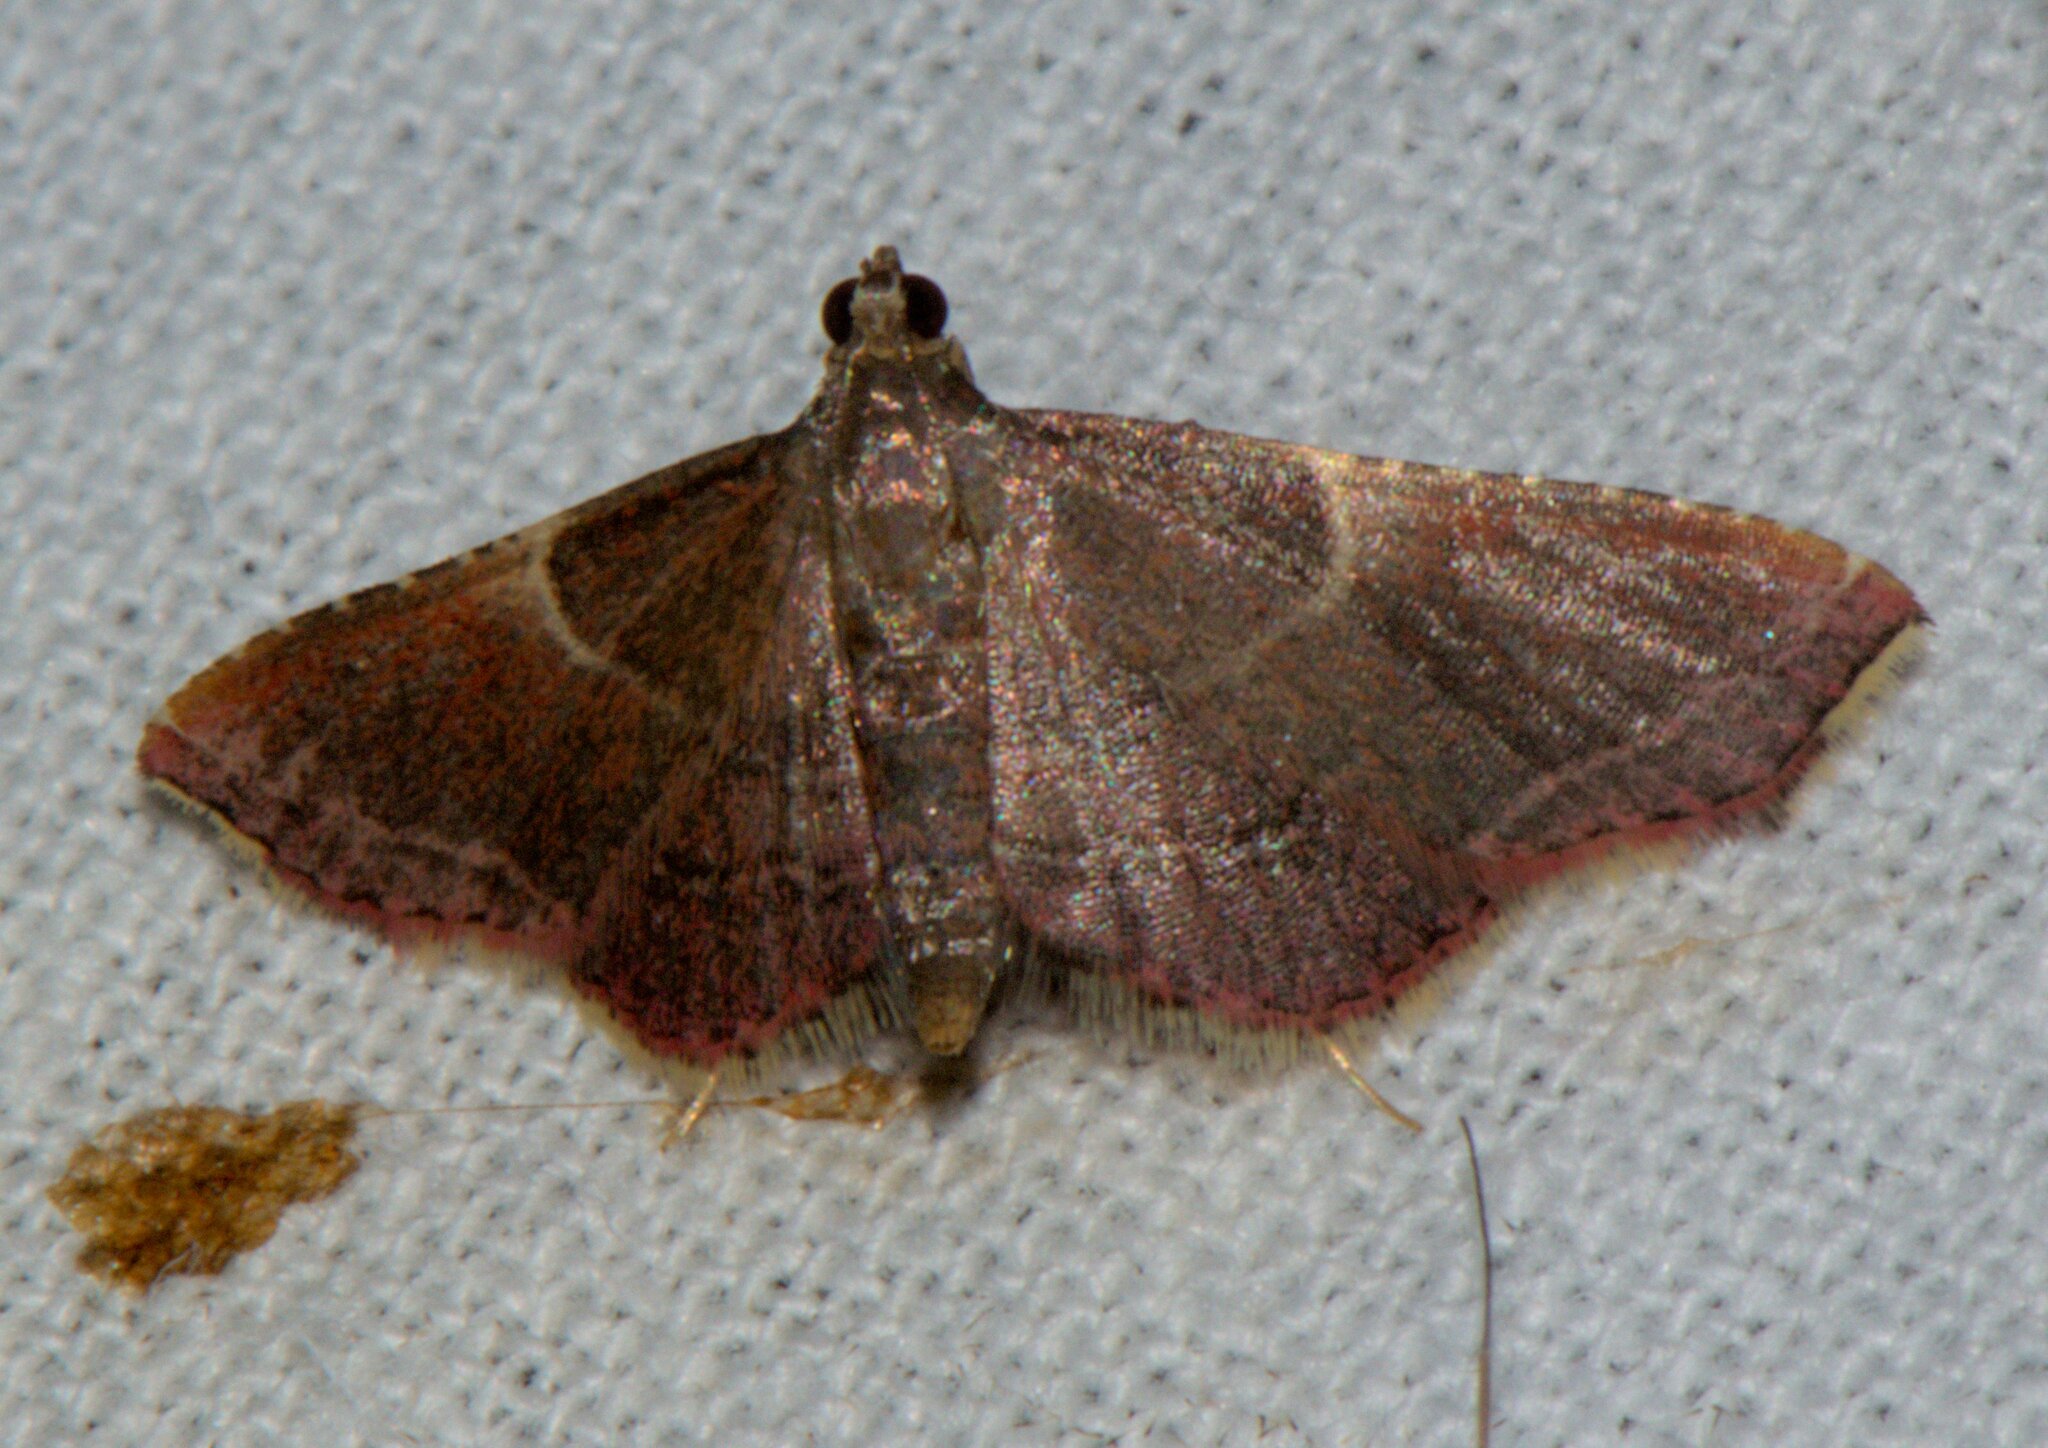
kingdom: Animalia
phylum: Arthropoda
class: Insecta
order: Lepidoptera
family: Pyralidae
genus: Endotricha
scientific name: Endotricha similata
